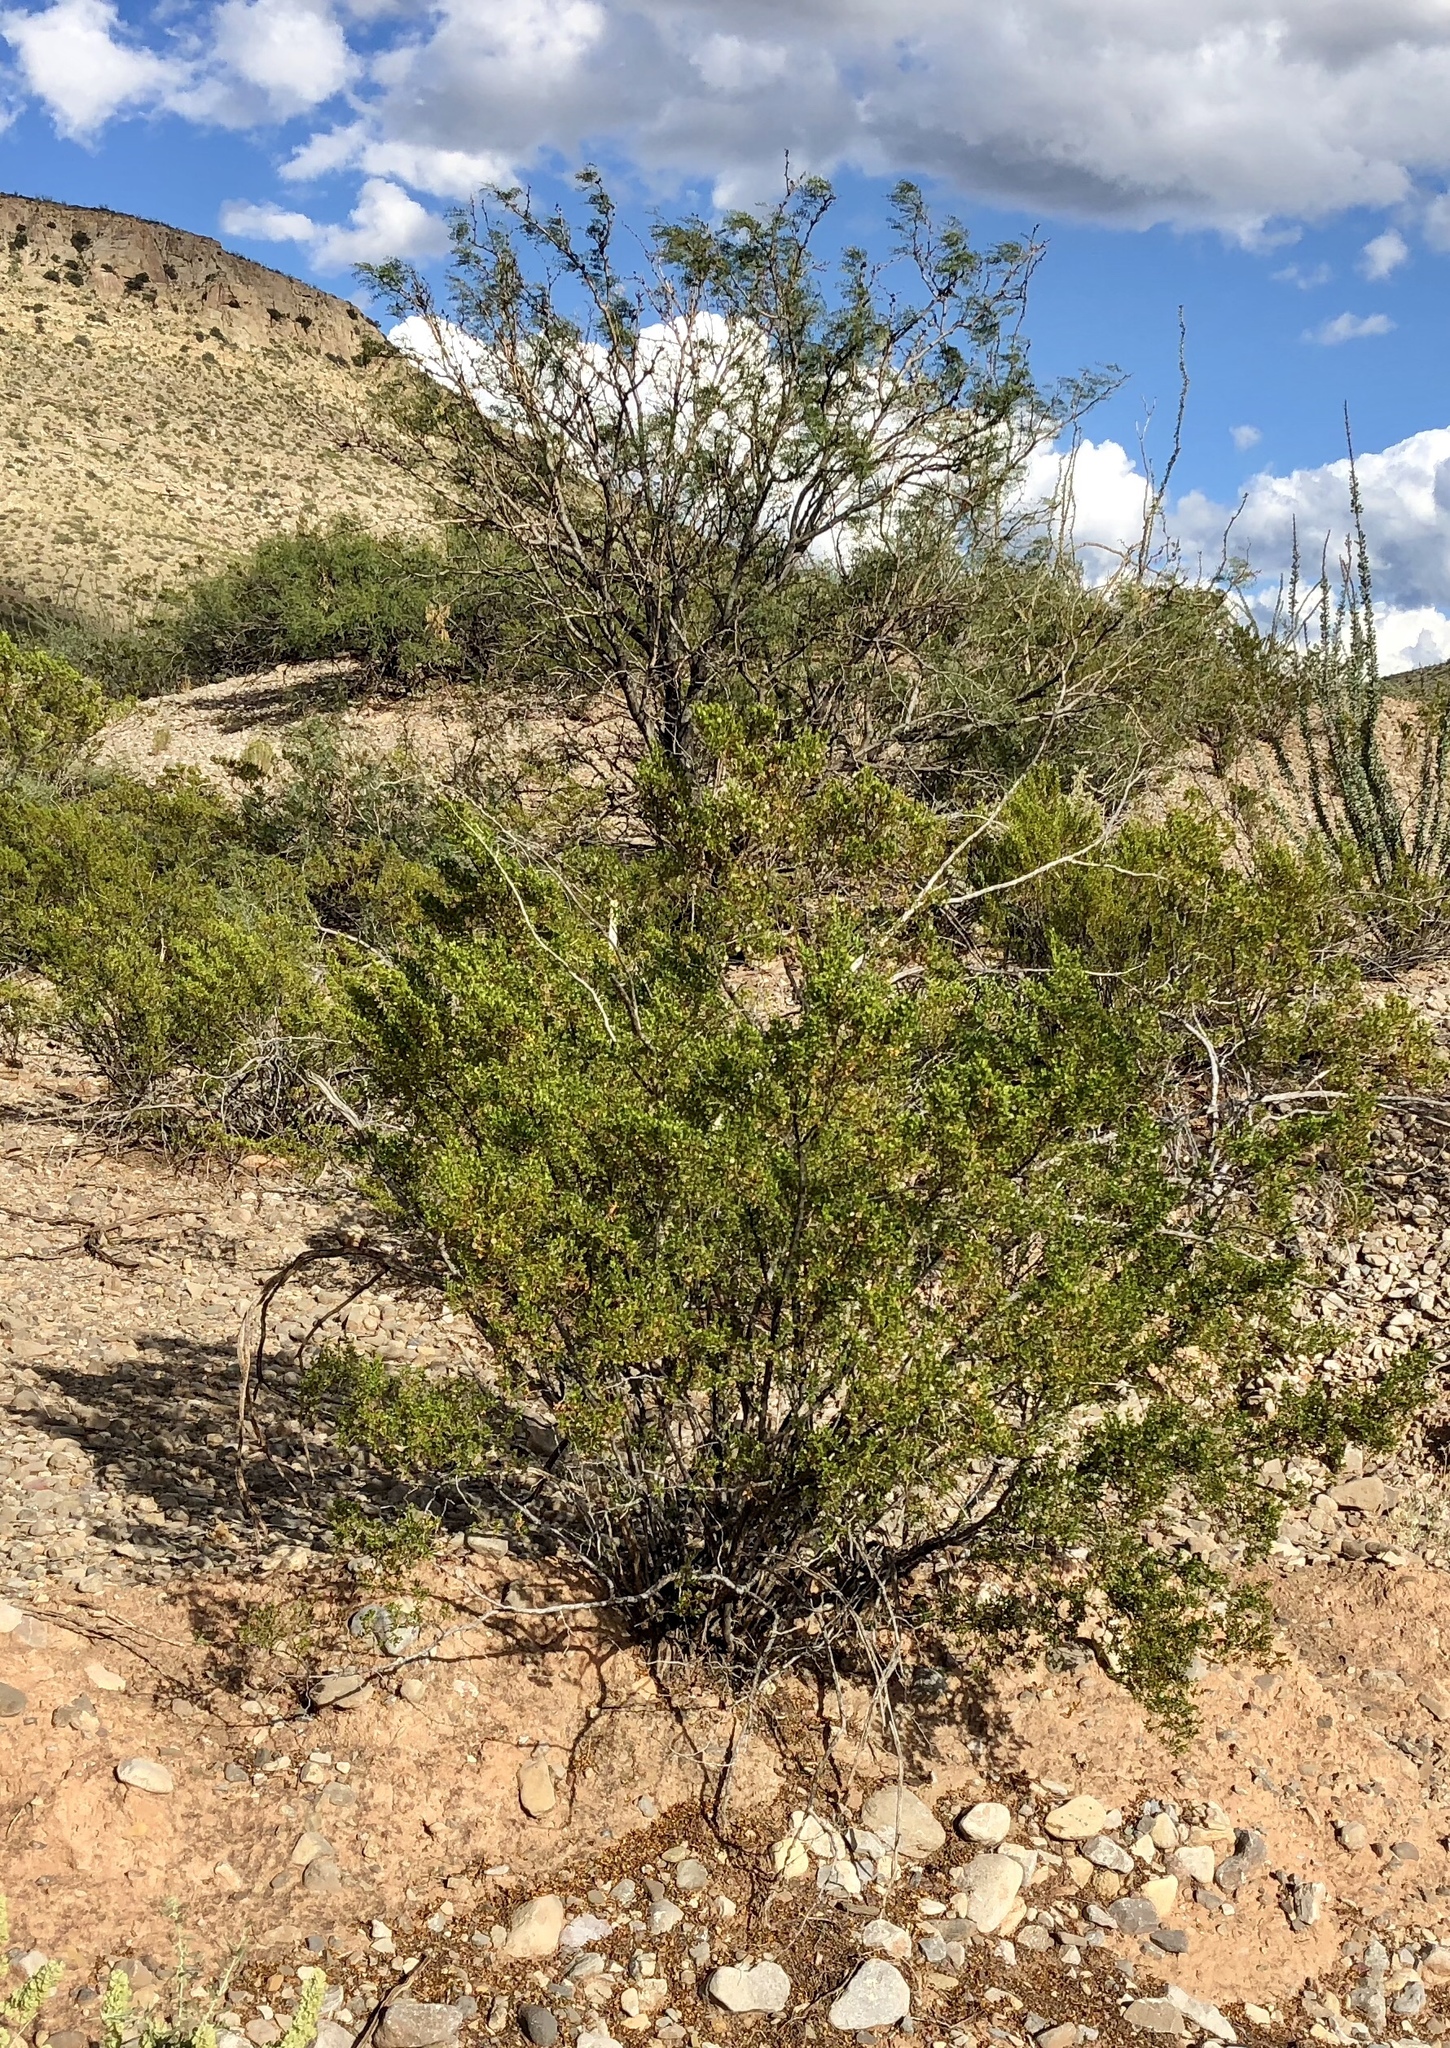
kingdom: Plantae
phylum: Tracheophyta
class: Magnoliopsida
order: Zygophyllales
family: Zygophyllaceae
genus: Larrea
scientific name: Larrea tridentata
